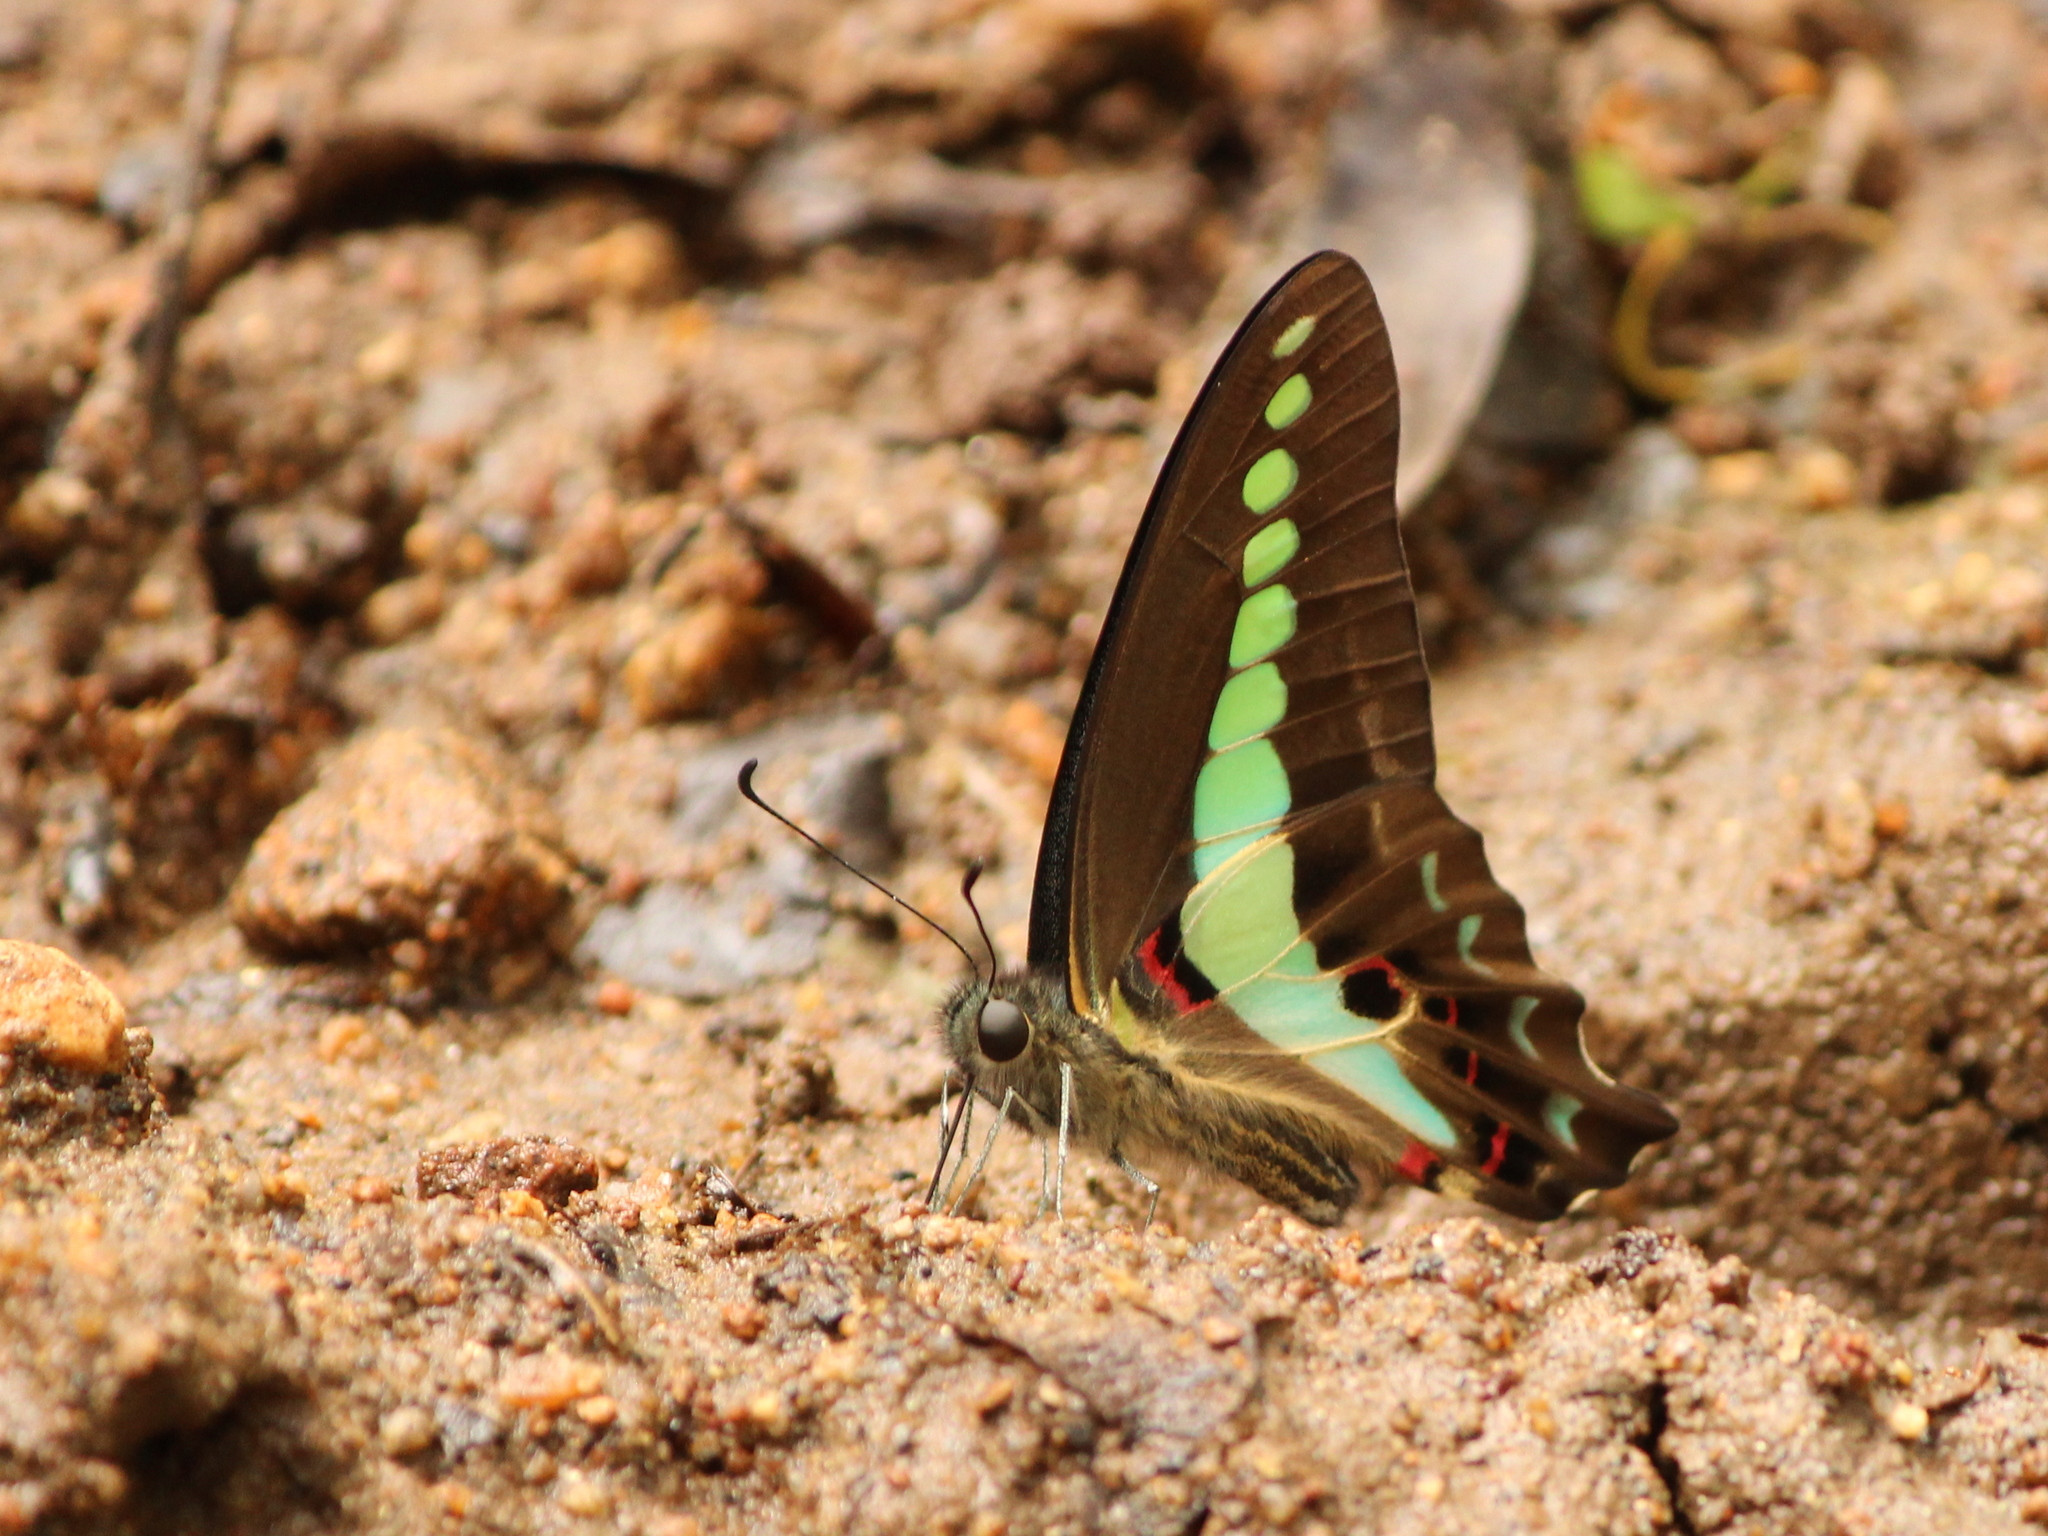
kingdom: Animalia
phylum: Arthropoda
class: Insecta
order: Lepidoptera
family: Papilionidae
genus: Graphium
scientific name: Graphium
